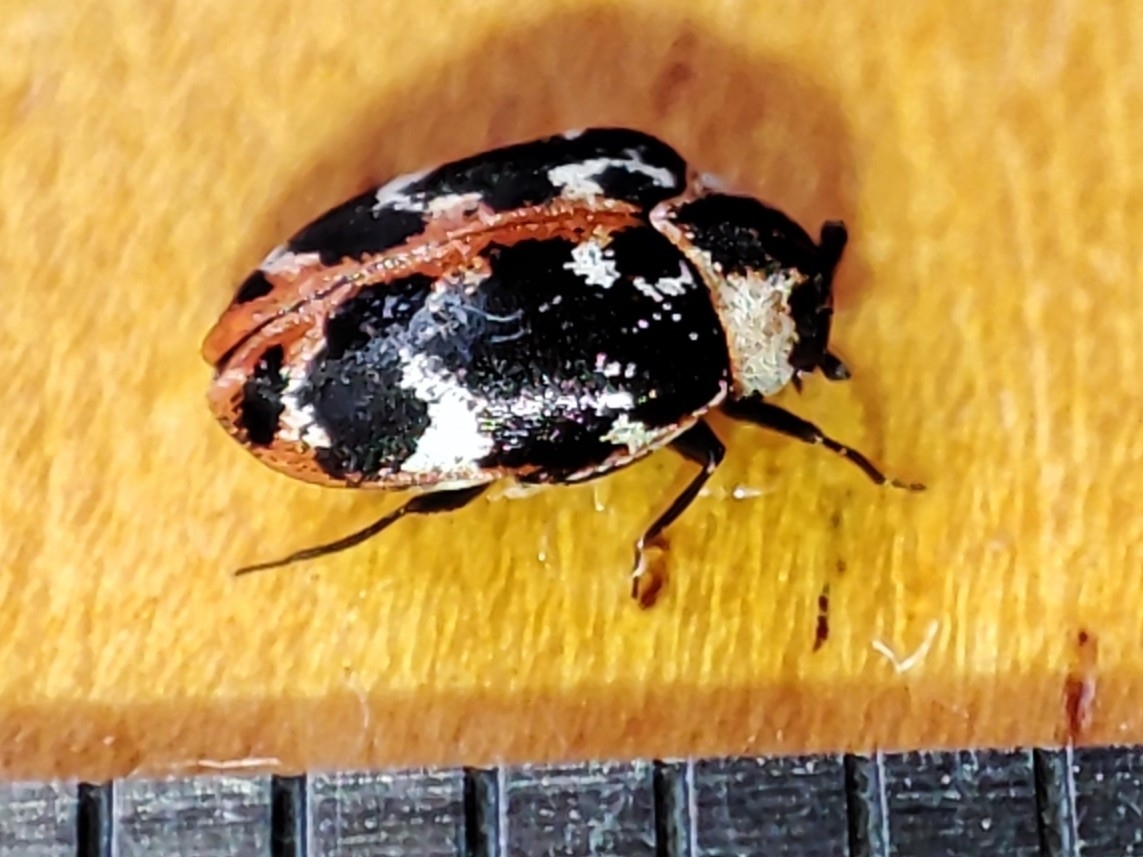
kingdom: Animalia
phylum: Arthropoda
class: Insecta
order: Coleoptera
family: Dermestidae
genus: Anthrenus
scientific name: Anthrenus scrophulariae
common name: Buffalo carpet beetle
